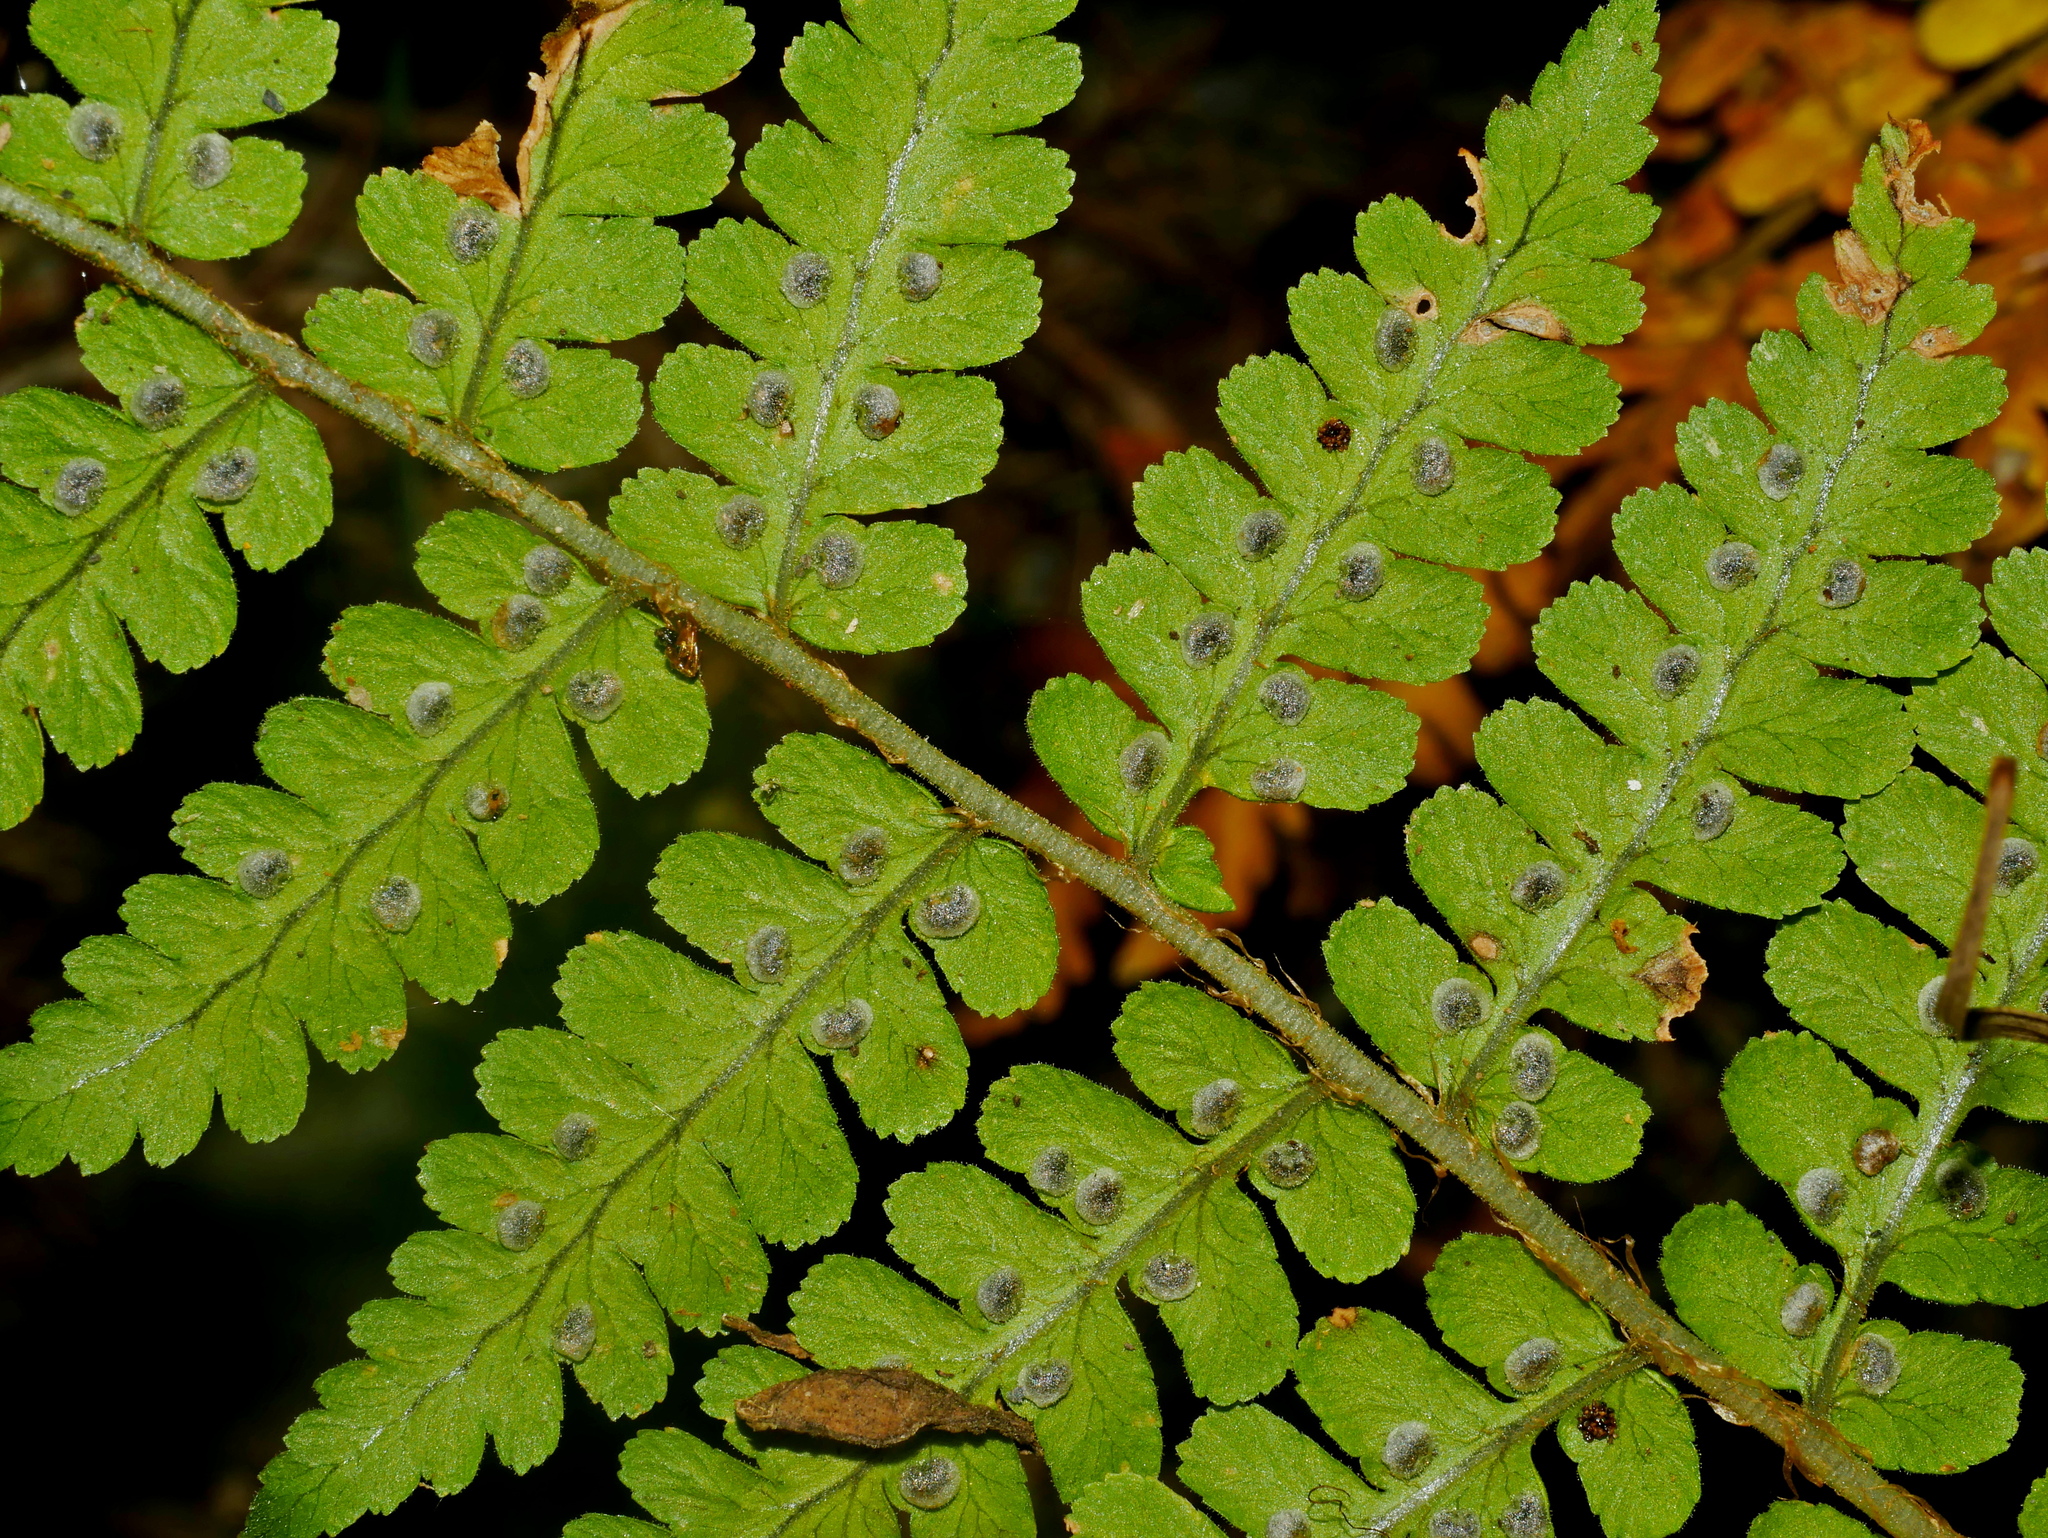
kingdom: Plantae
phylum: Tracheophyta
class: Polypodiopsida
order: Polypodiales
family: Dryopteridaceae
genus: Dryopteris
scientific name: Dryopteris woodsiisora
